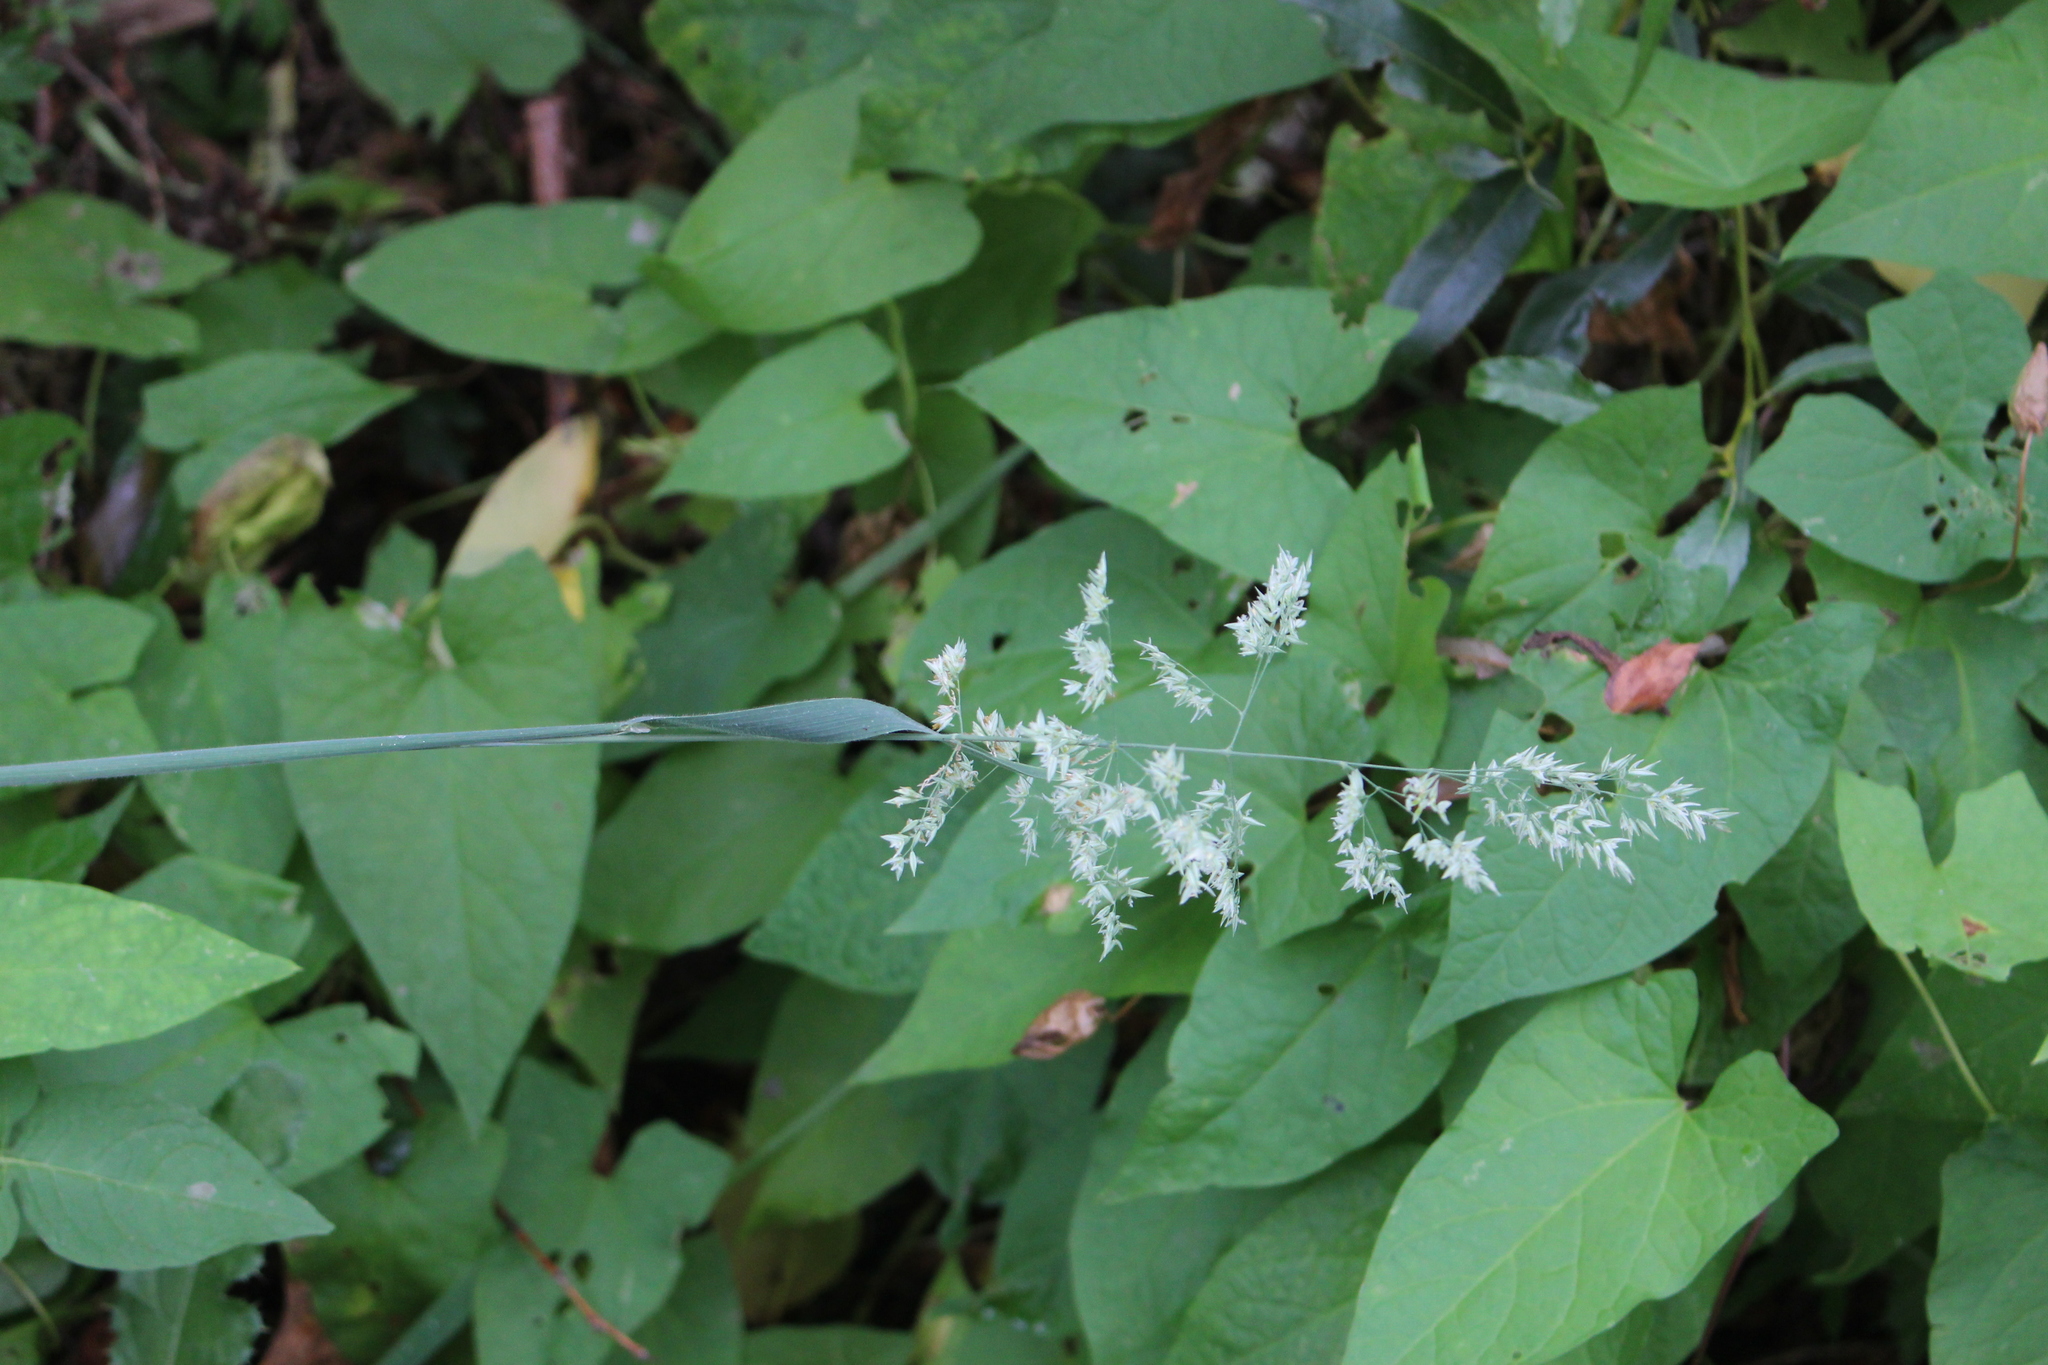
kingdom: Plantae
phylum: Tracheophyta
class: Liliopsida
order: Poales
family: Poaceae
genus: Holcus
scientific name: Holcus lanatus
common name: Yorkshire-fog
